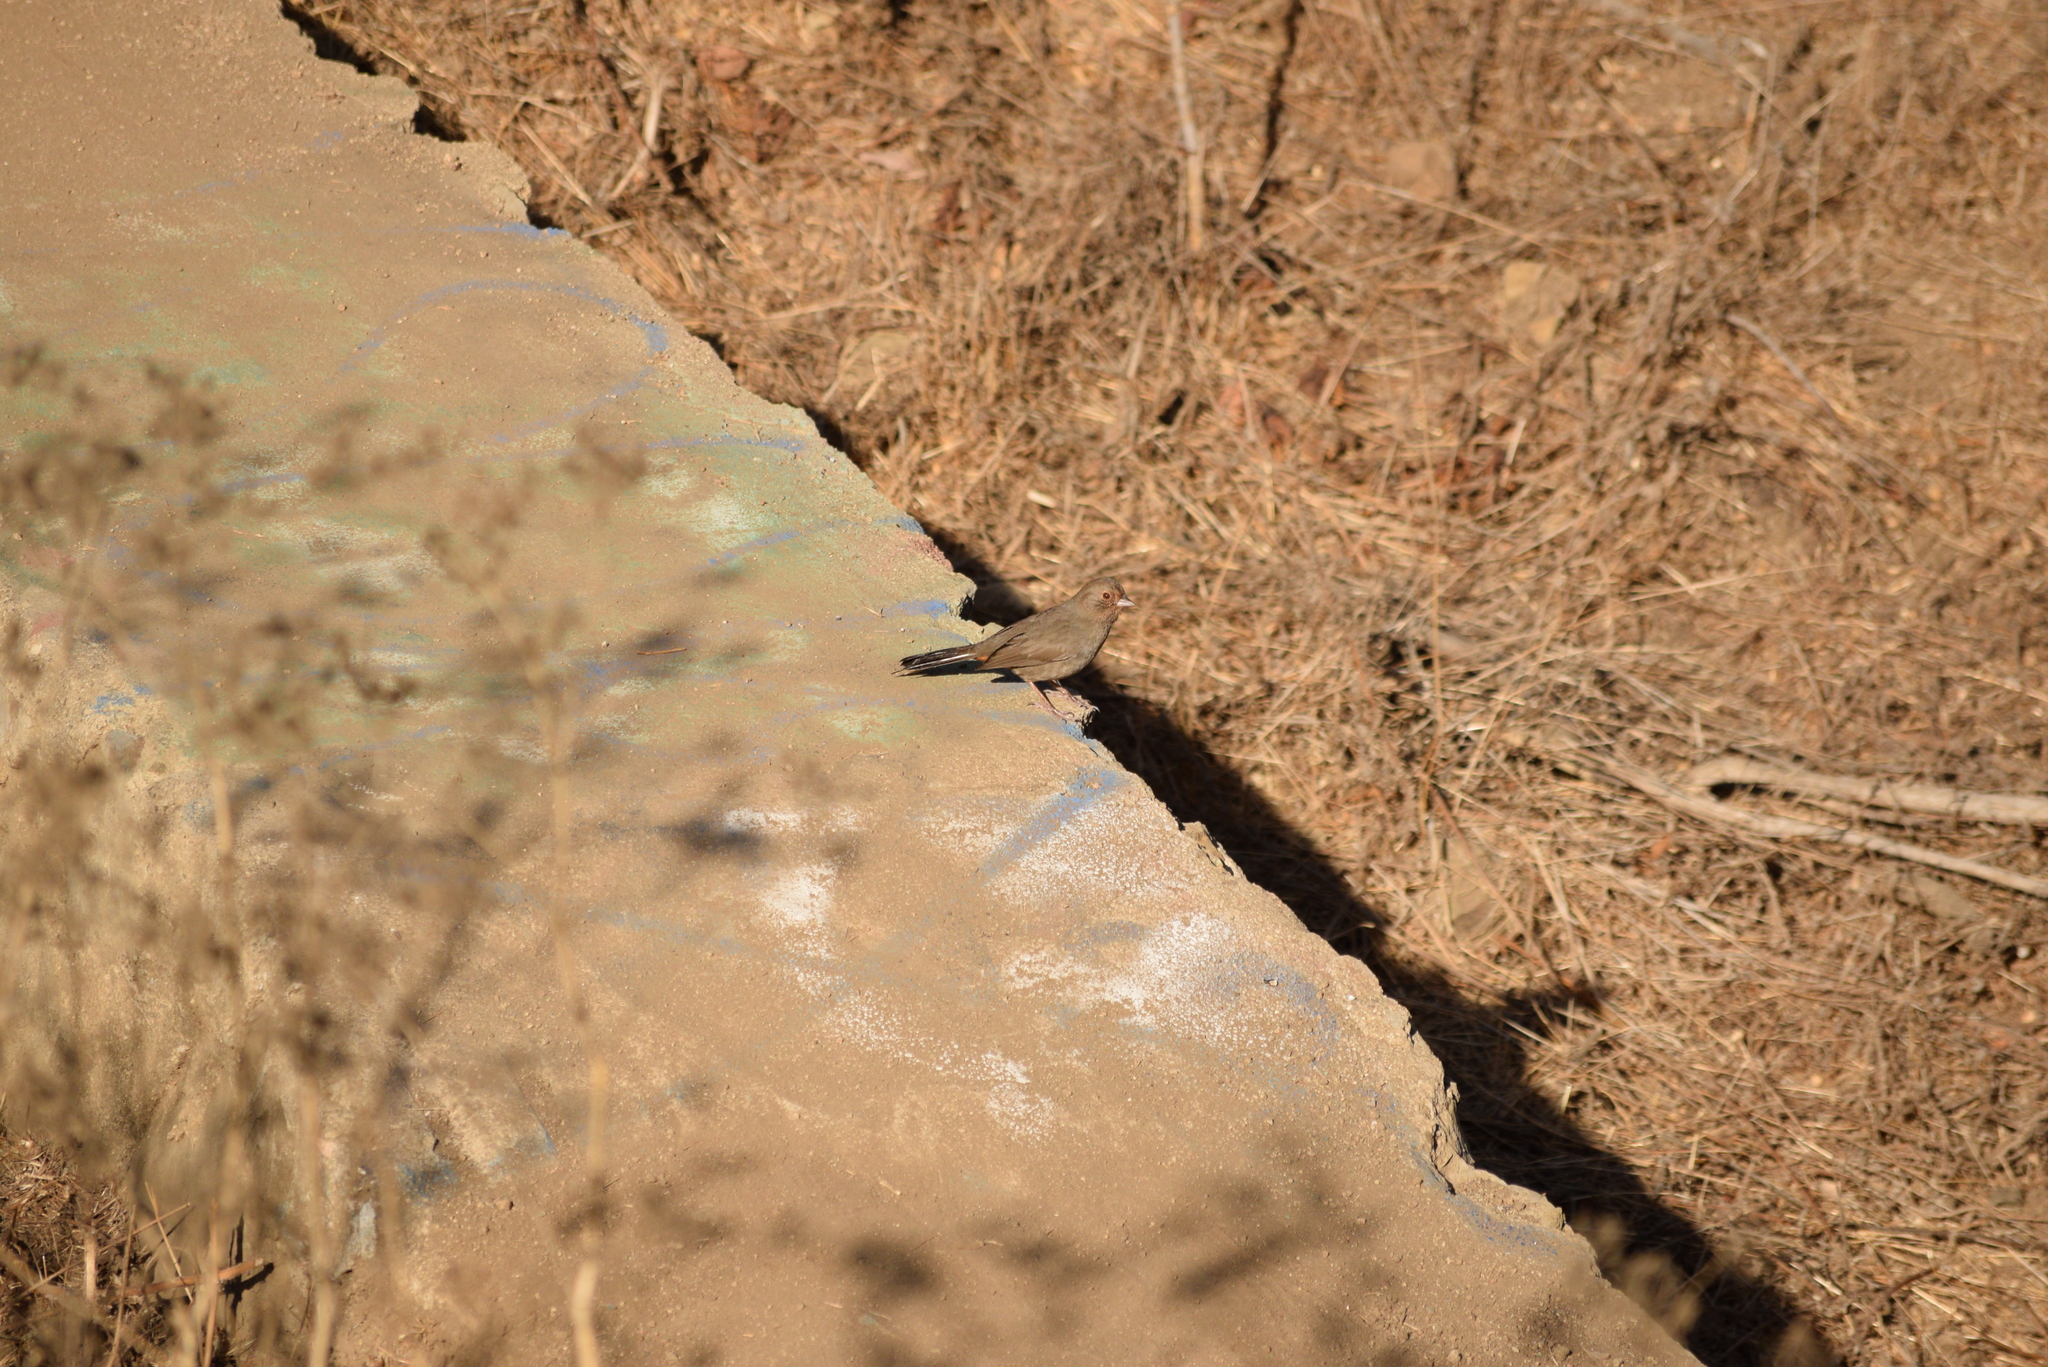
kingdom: Animalia
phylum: Chordata
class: Aves
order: Passeriformes
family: Passerellidae
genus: Melozone
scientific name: Melozone crissalis
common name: California towhee
